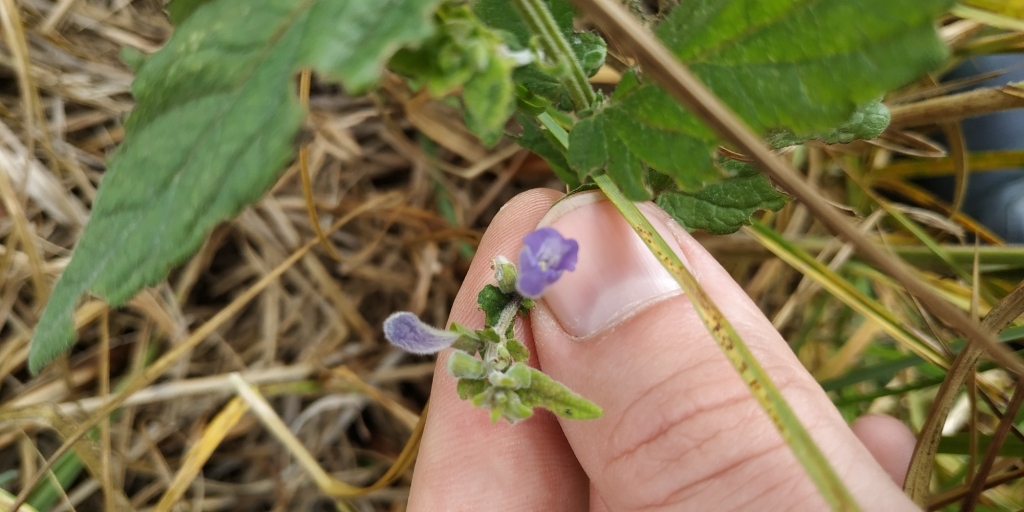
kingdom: Plantae
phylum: Tracheophyta
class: Magnoliopsida
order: Lamiales
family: Lamiaceae
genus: Scutellaria
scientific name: Scutellaria galericulata
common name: Skullcap
